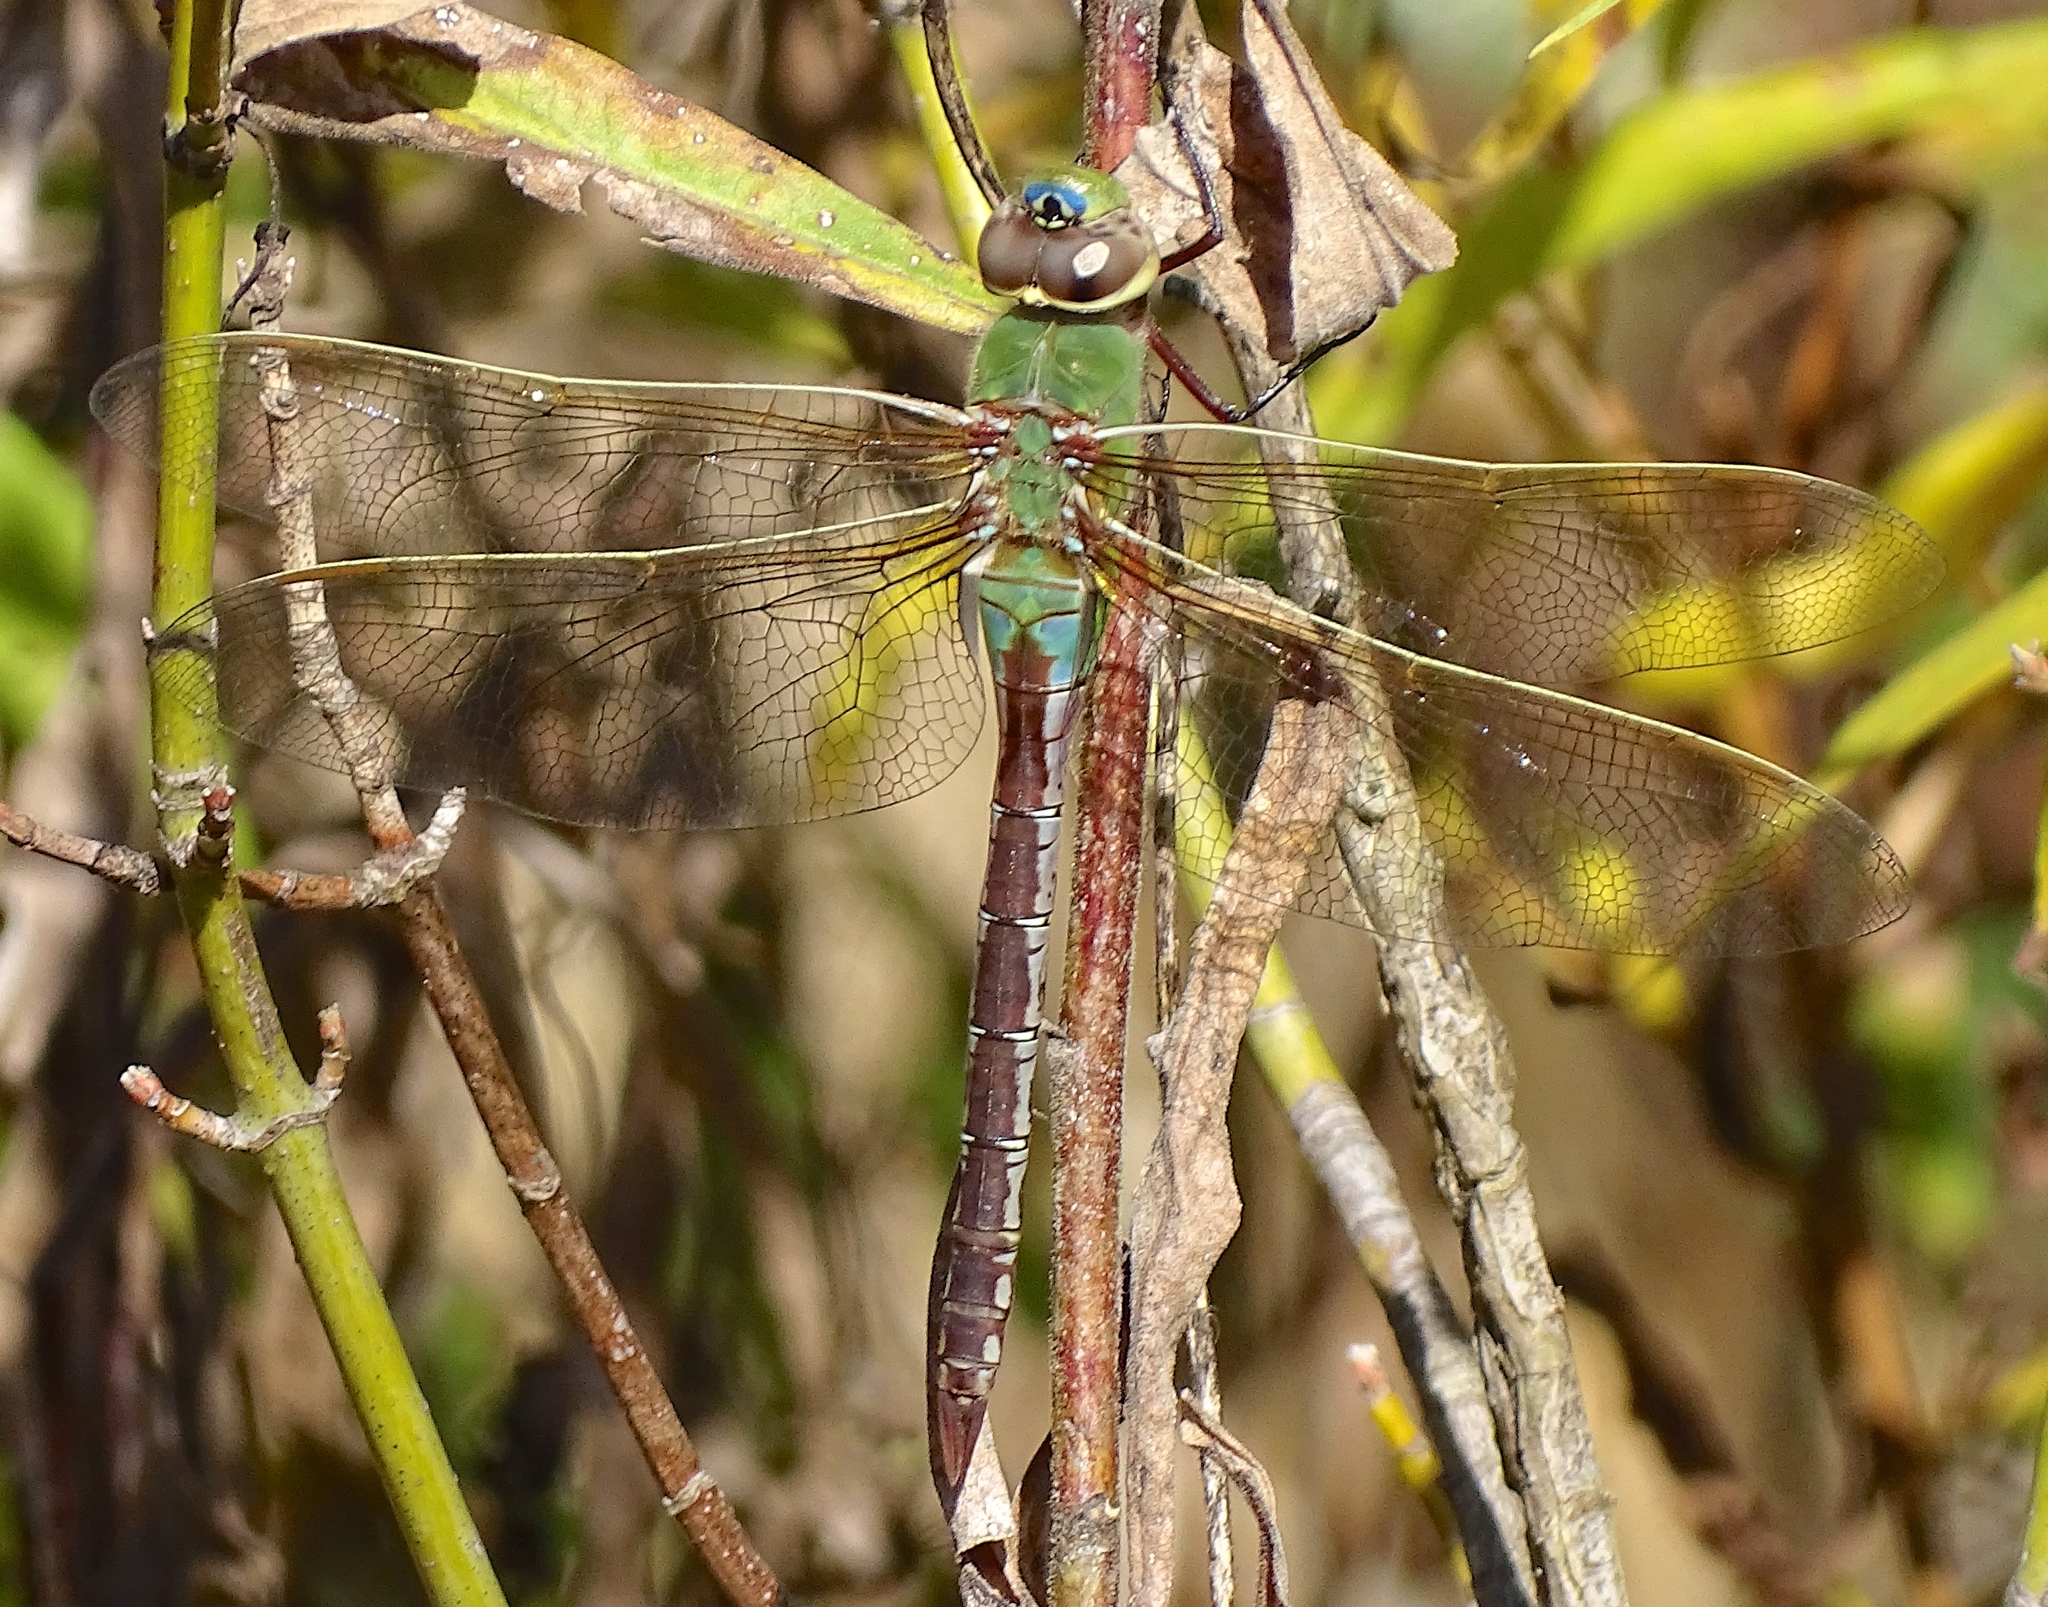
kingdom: Animalia
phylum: Arthropoda
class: Insecta
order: Odonata
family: Aeshnidae
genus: Anax
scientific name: Anax junius
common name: Common green darner
